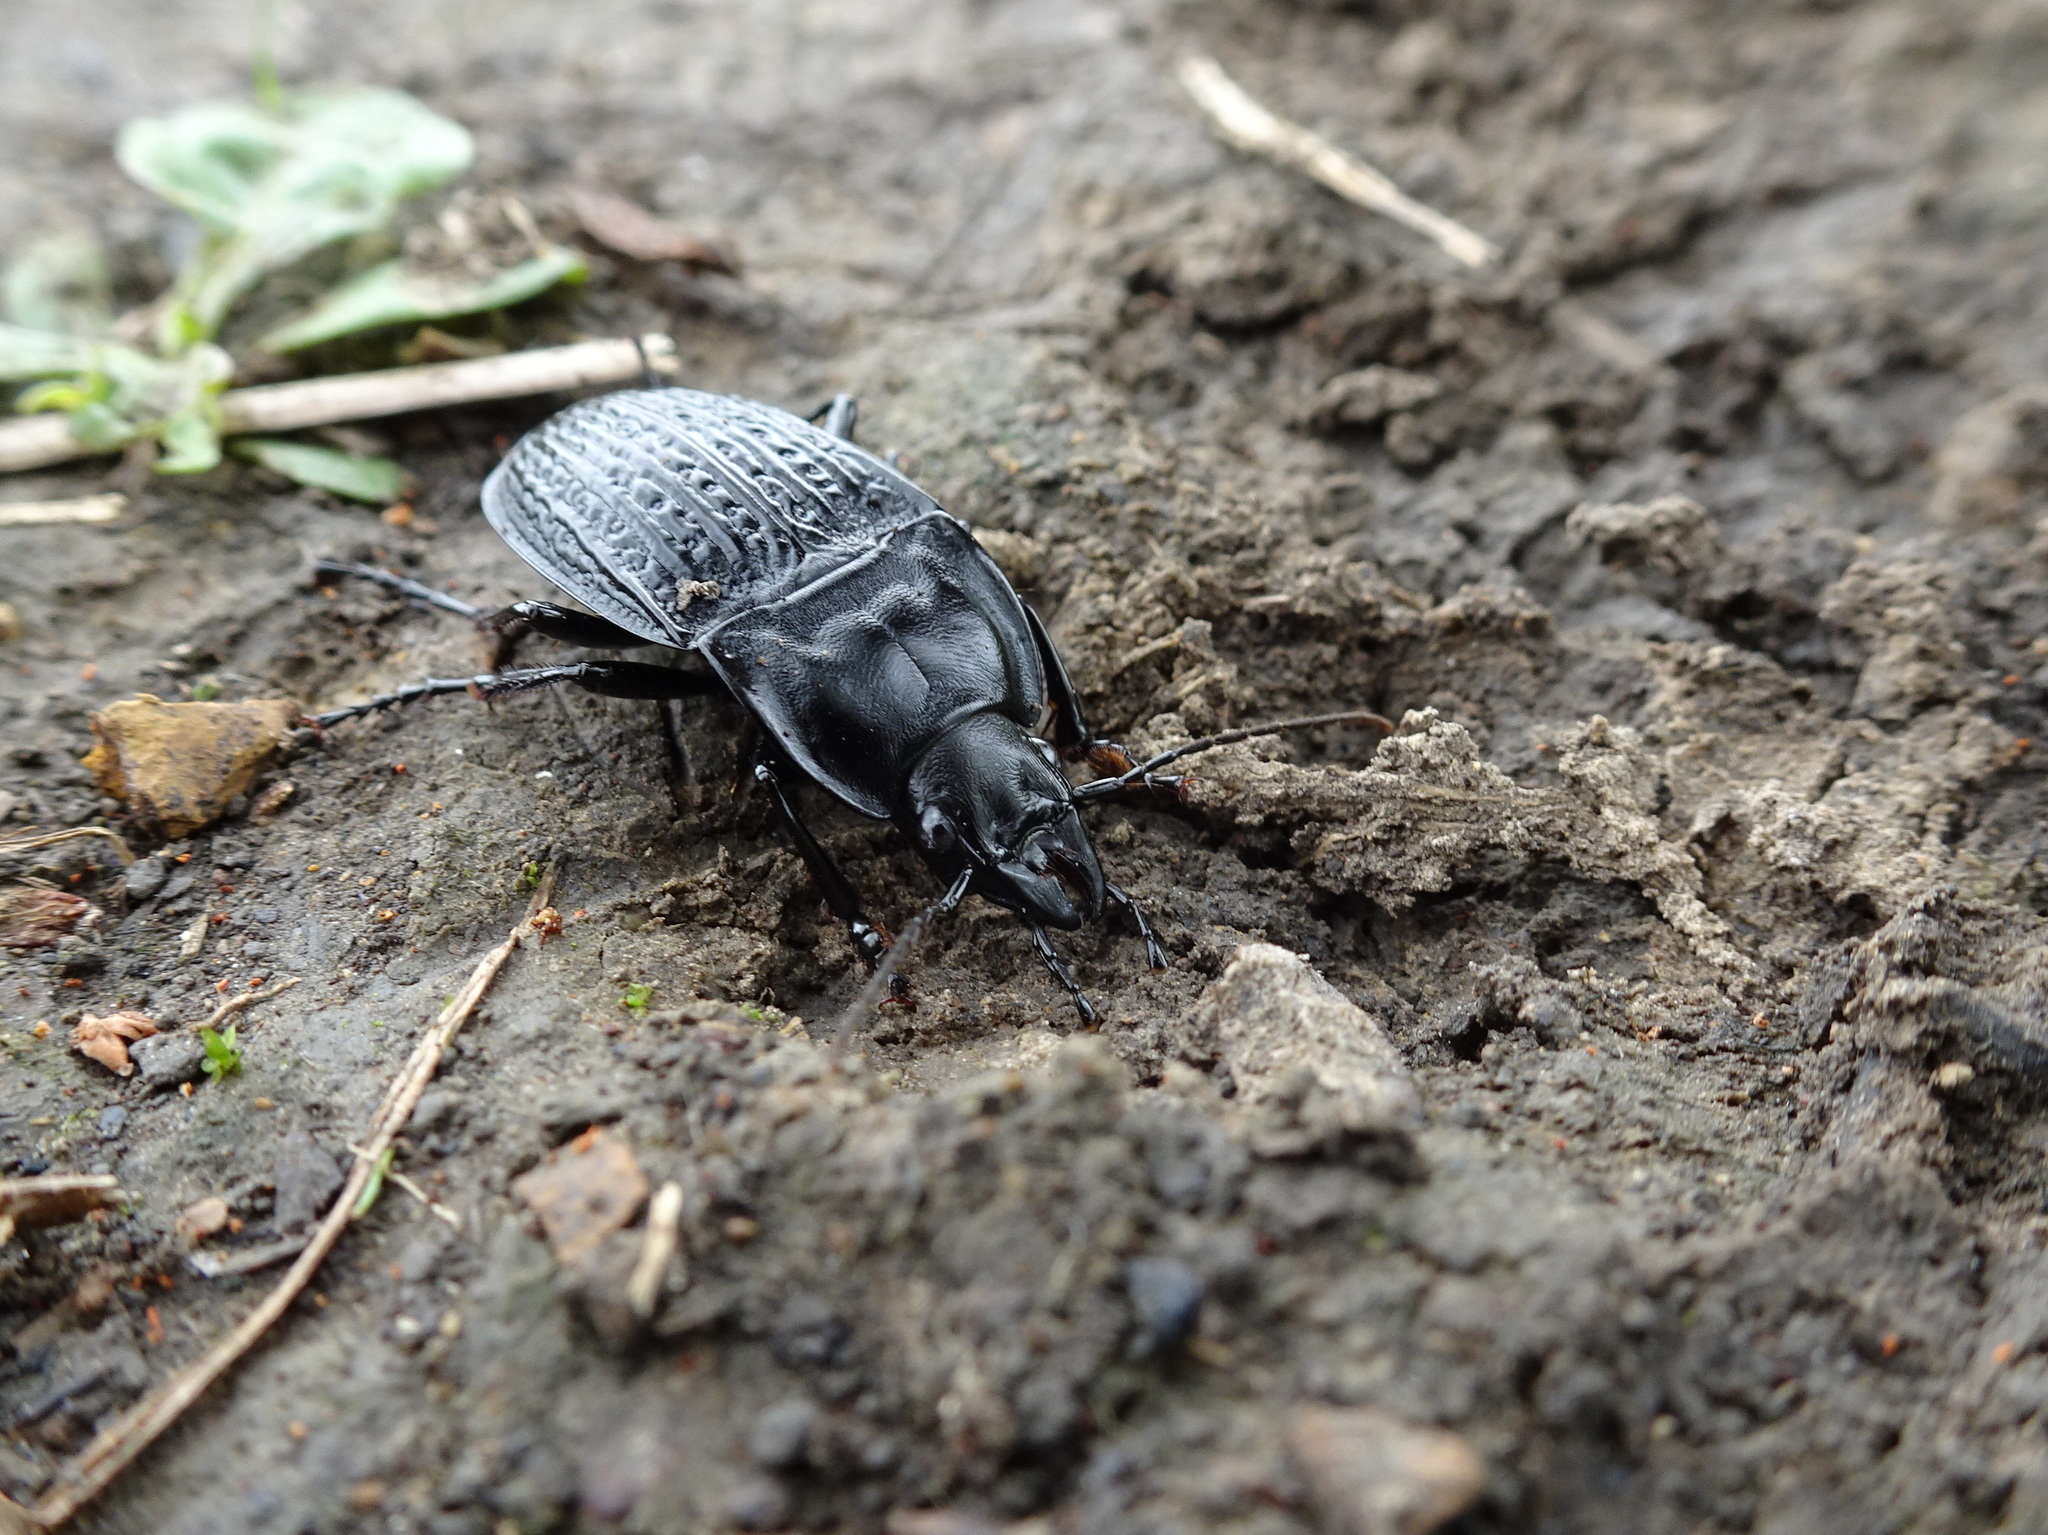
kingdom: Animalia
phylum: Arthropoda
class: Insecta
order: Coleoptera
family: Carabidae
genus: Dicaelus
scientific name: Dicaelus sculptilis
